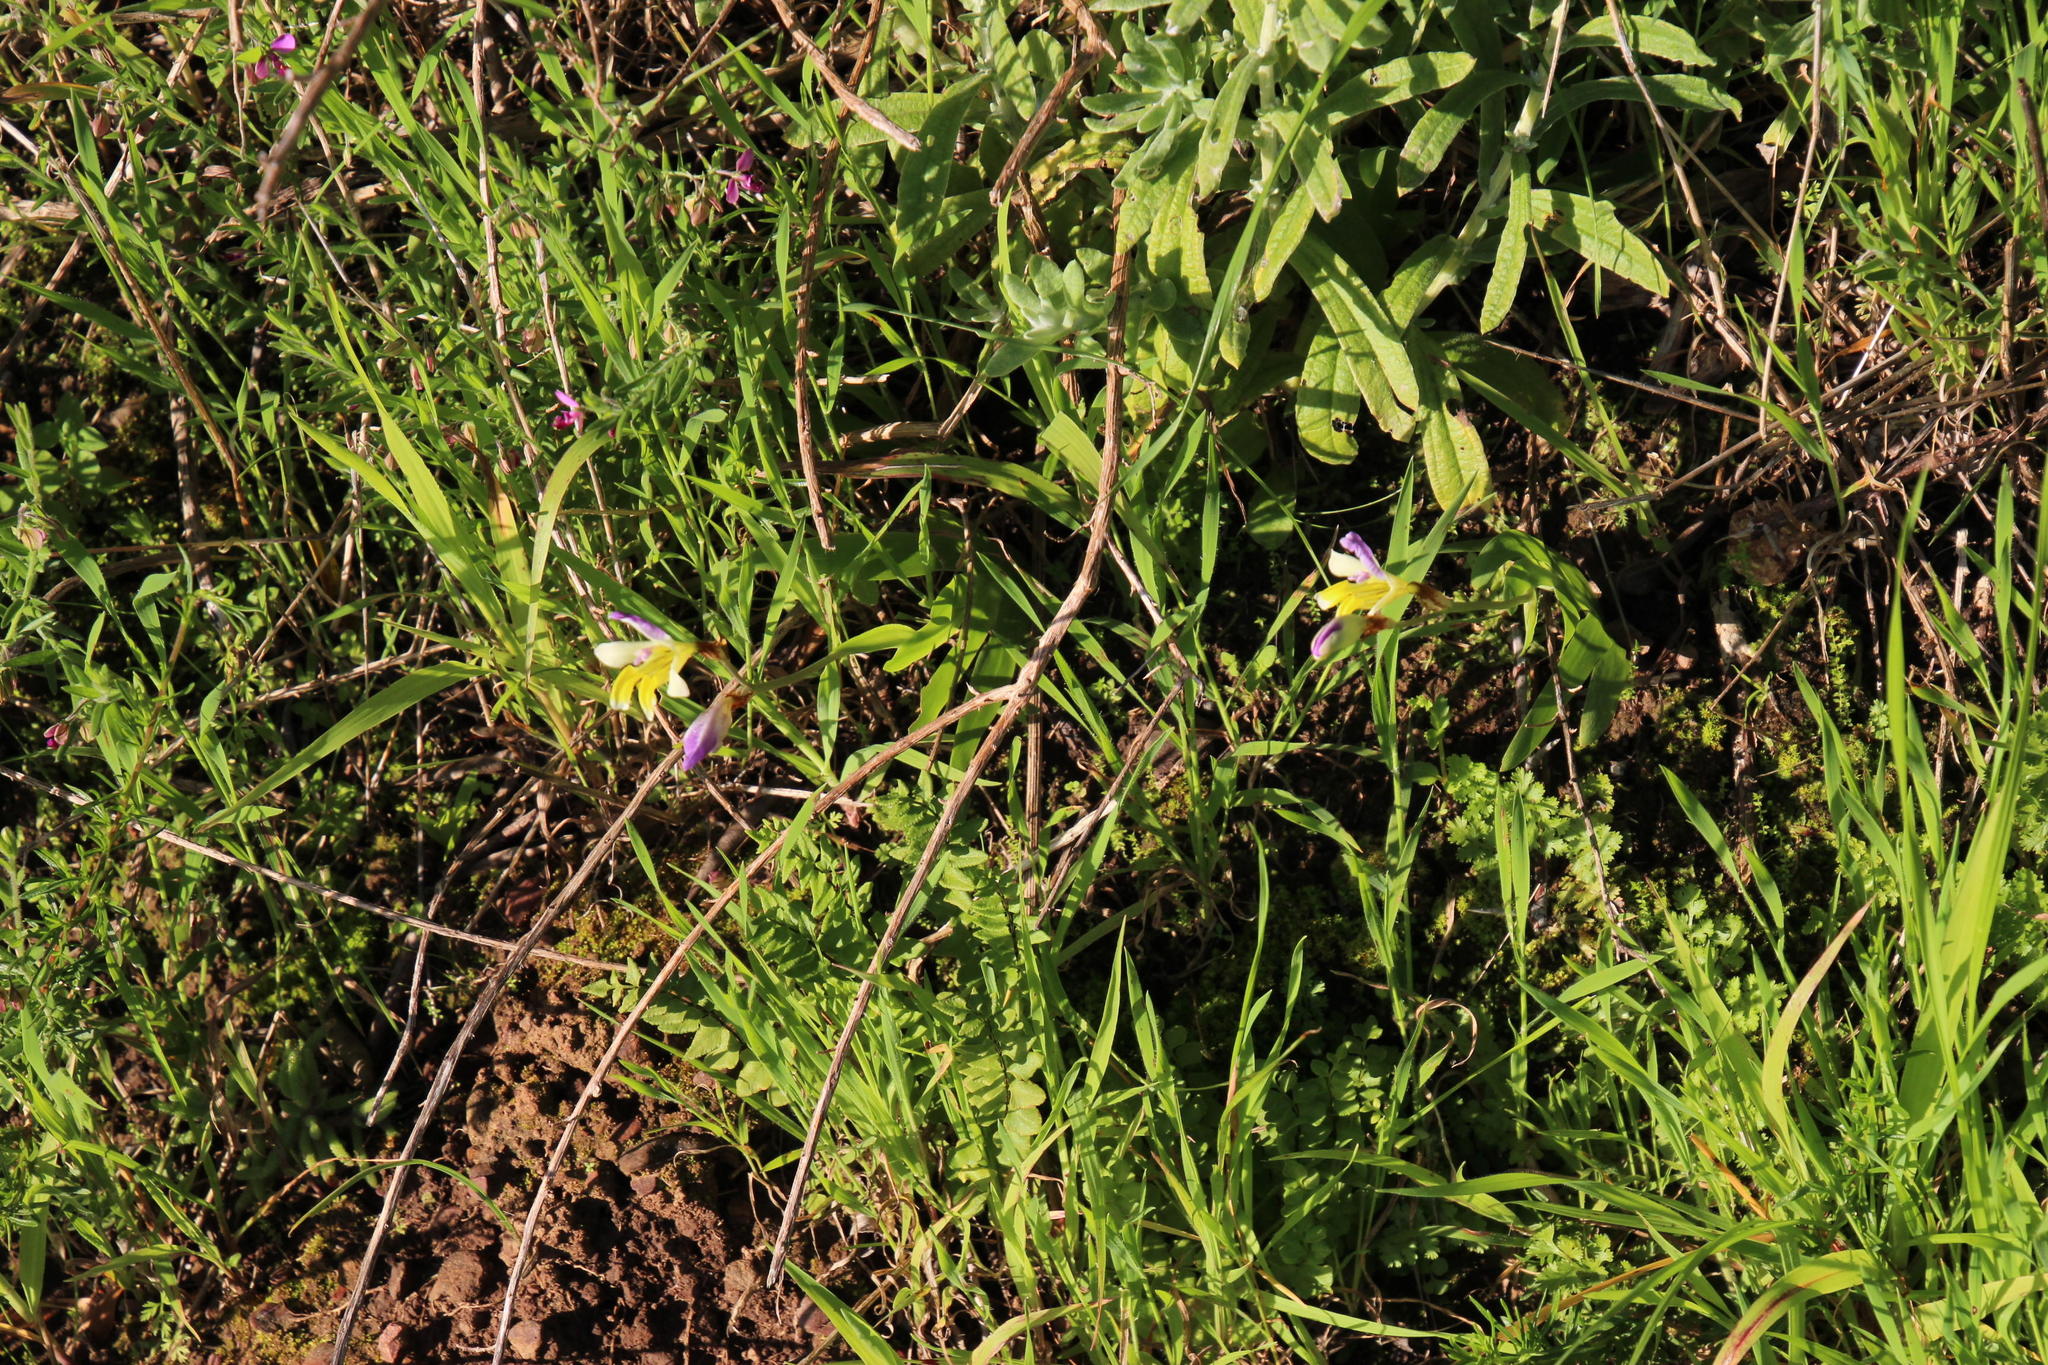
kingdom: Plantae
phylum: Tracheophyta
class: Liliopsida
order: Asparagales
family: Iridaceae
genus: Sparaxis
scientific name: Sparaxis villosa
